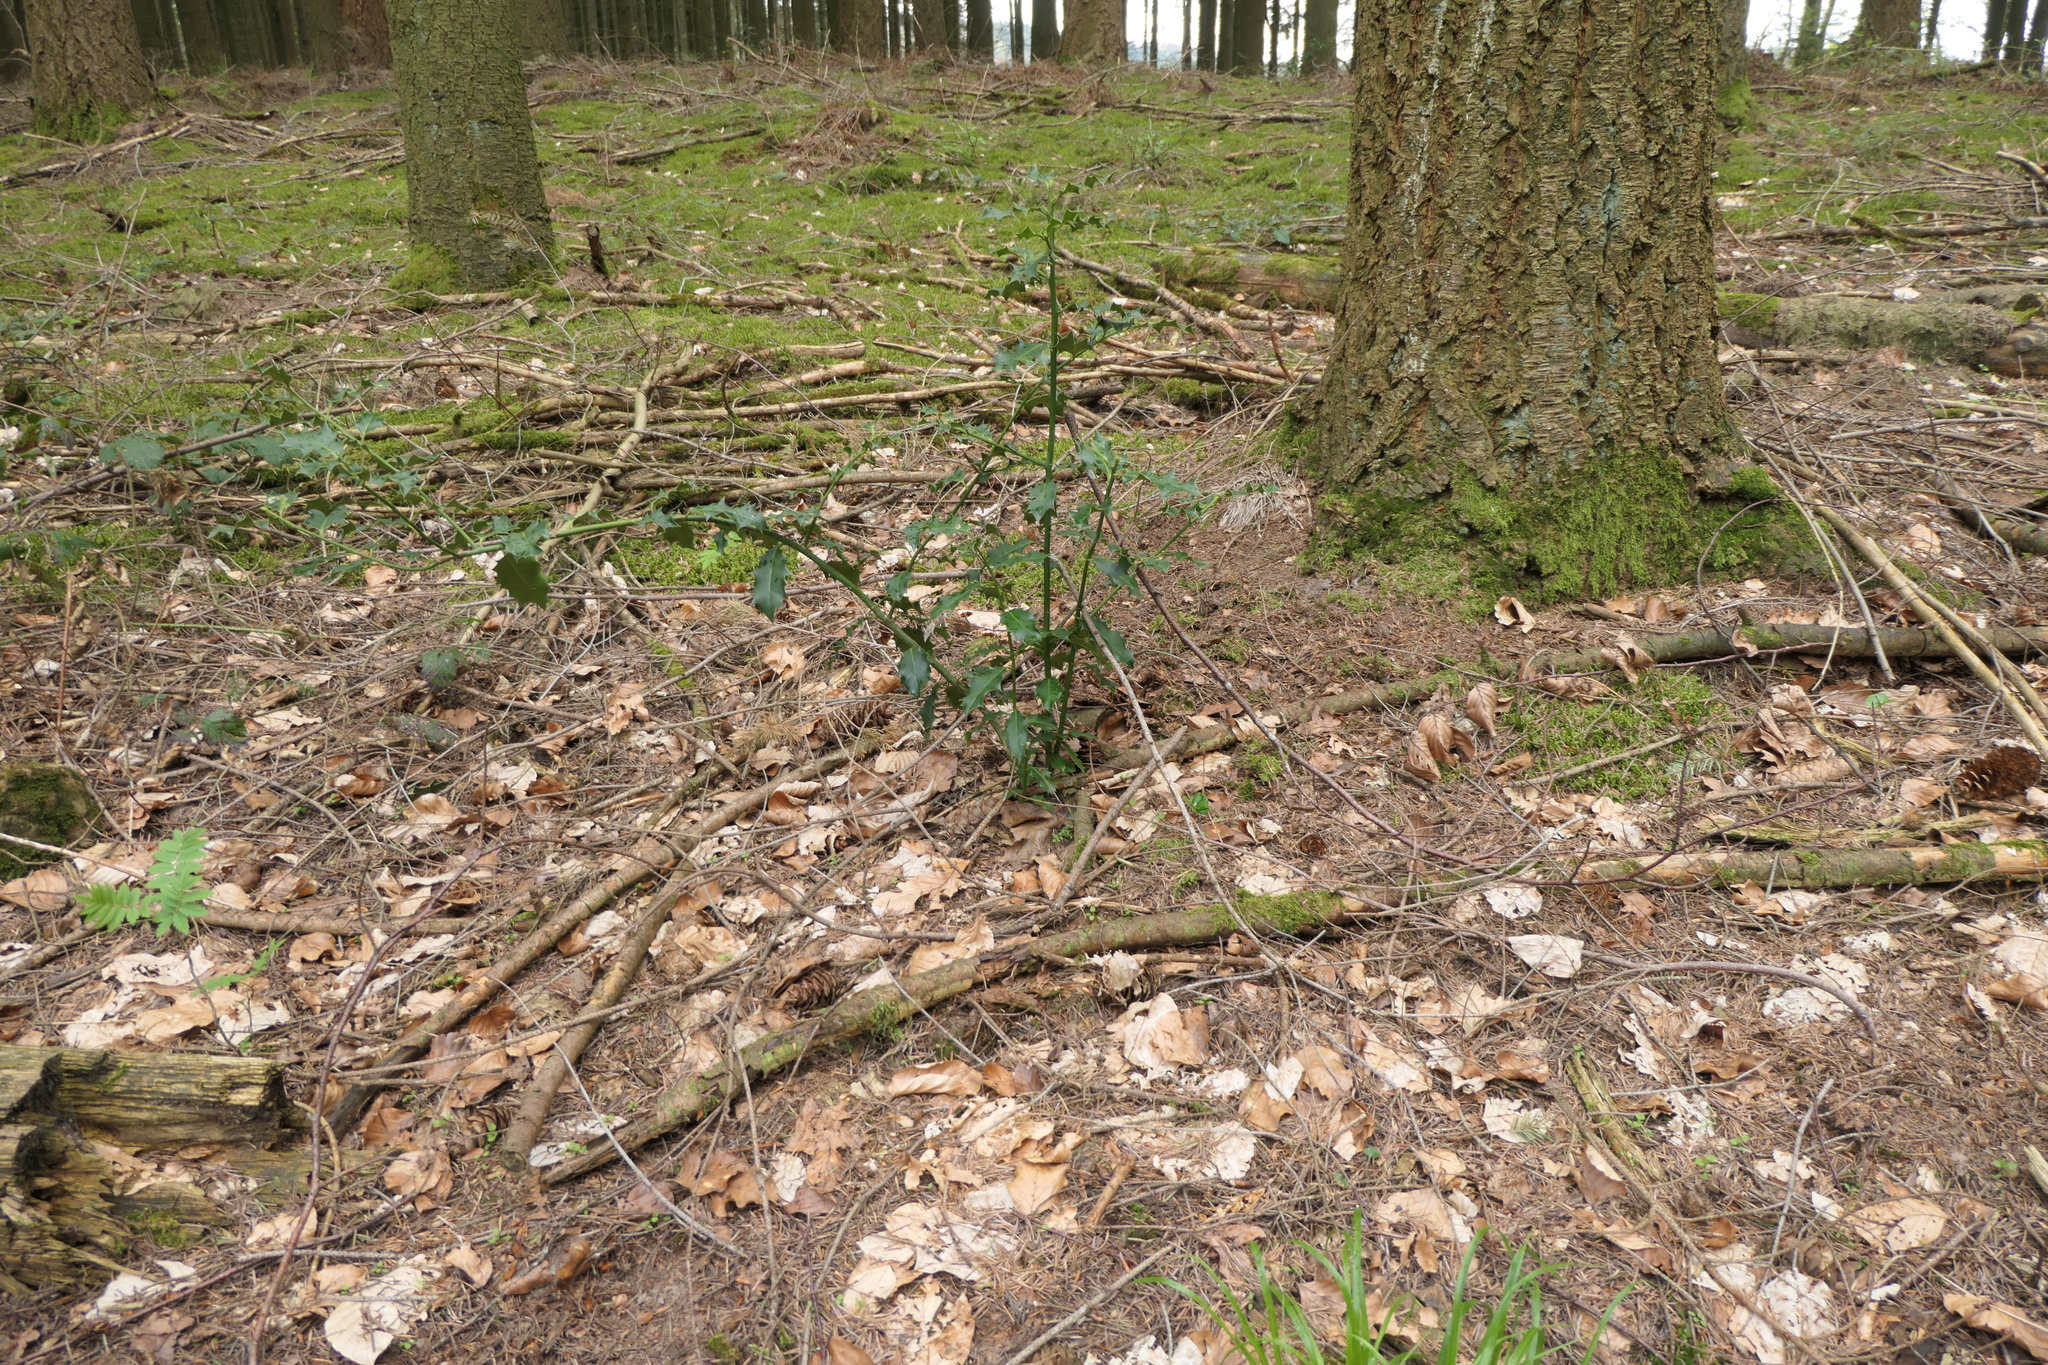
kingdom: Plantae
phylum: Tracheophyta
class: Magnoliopsida
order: Aquifoliales
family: Aquifoliaceae
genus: Ilex
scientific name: Ilex aquifolium
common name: English holly
